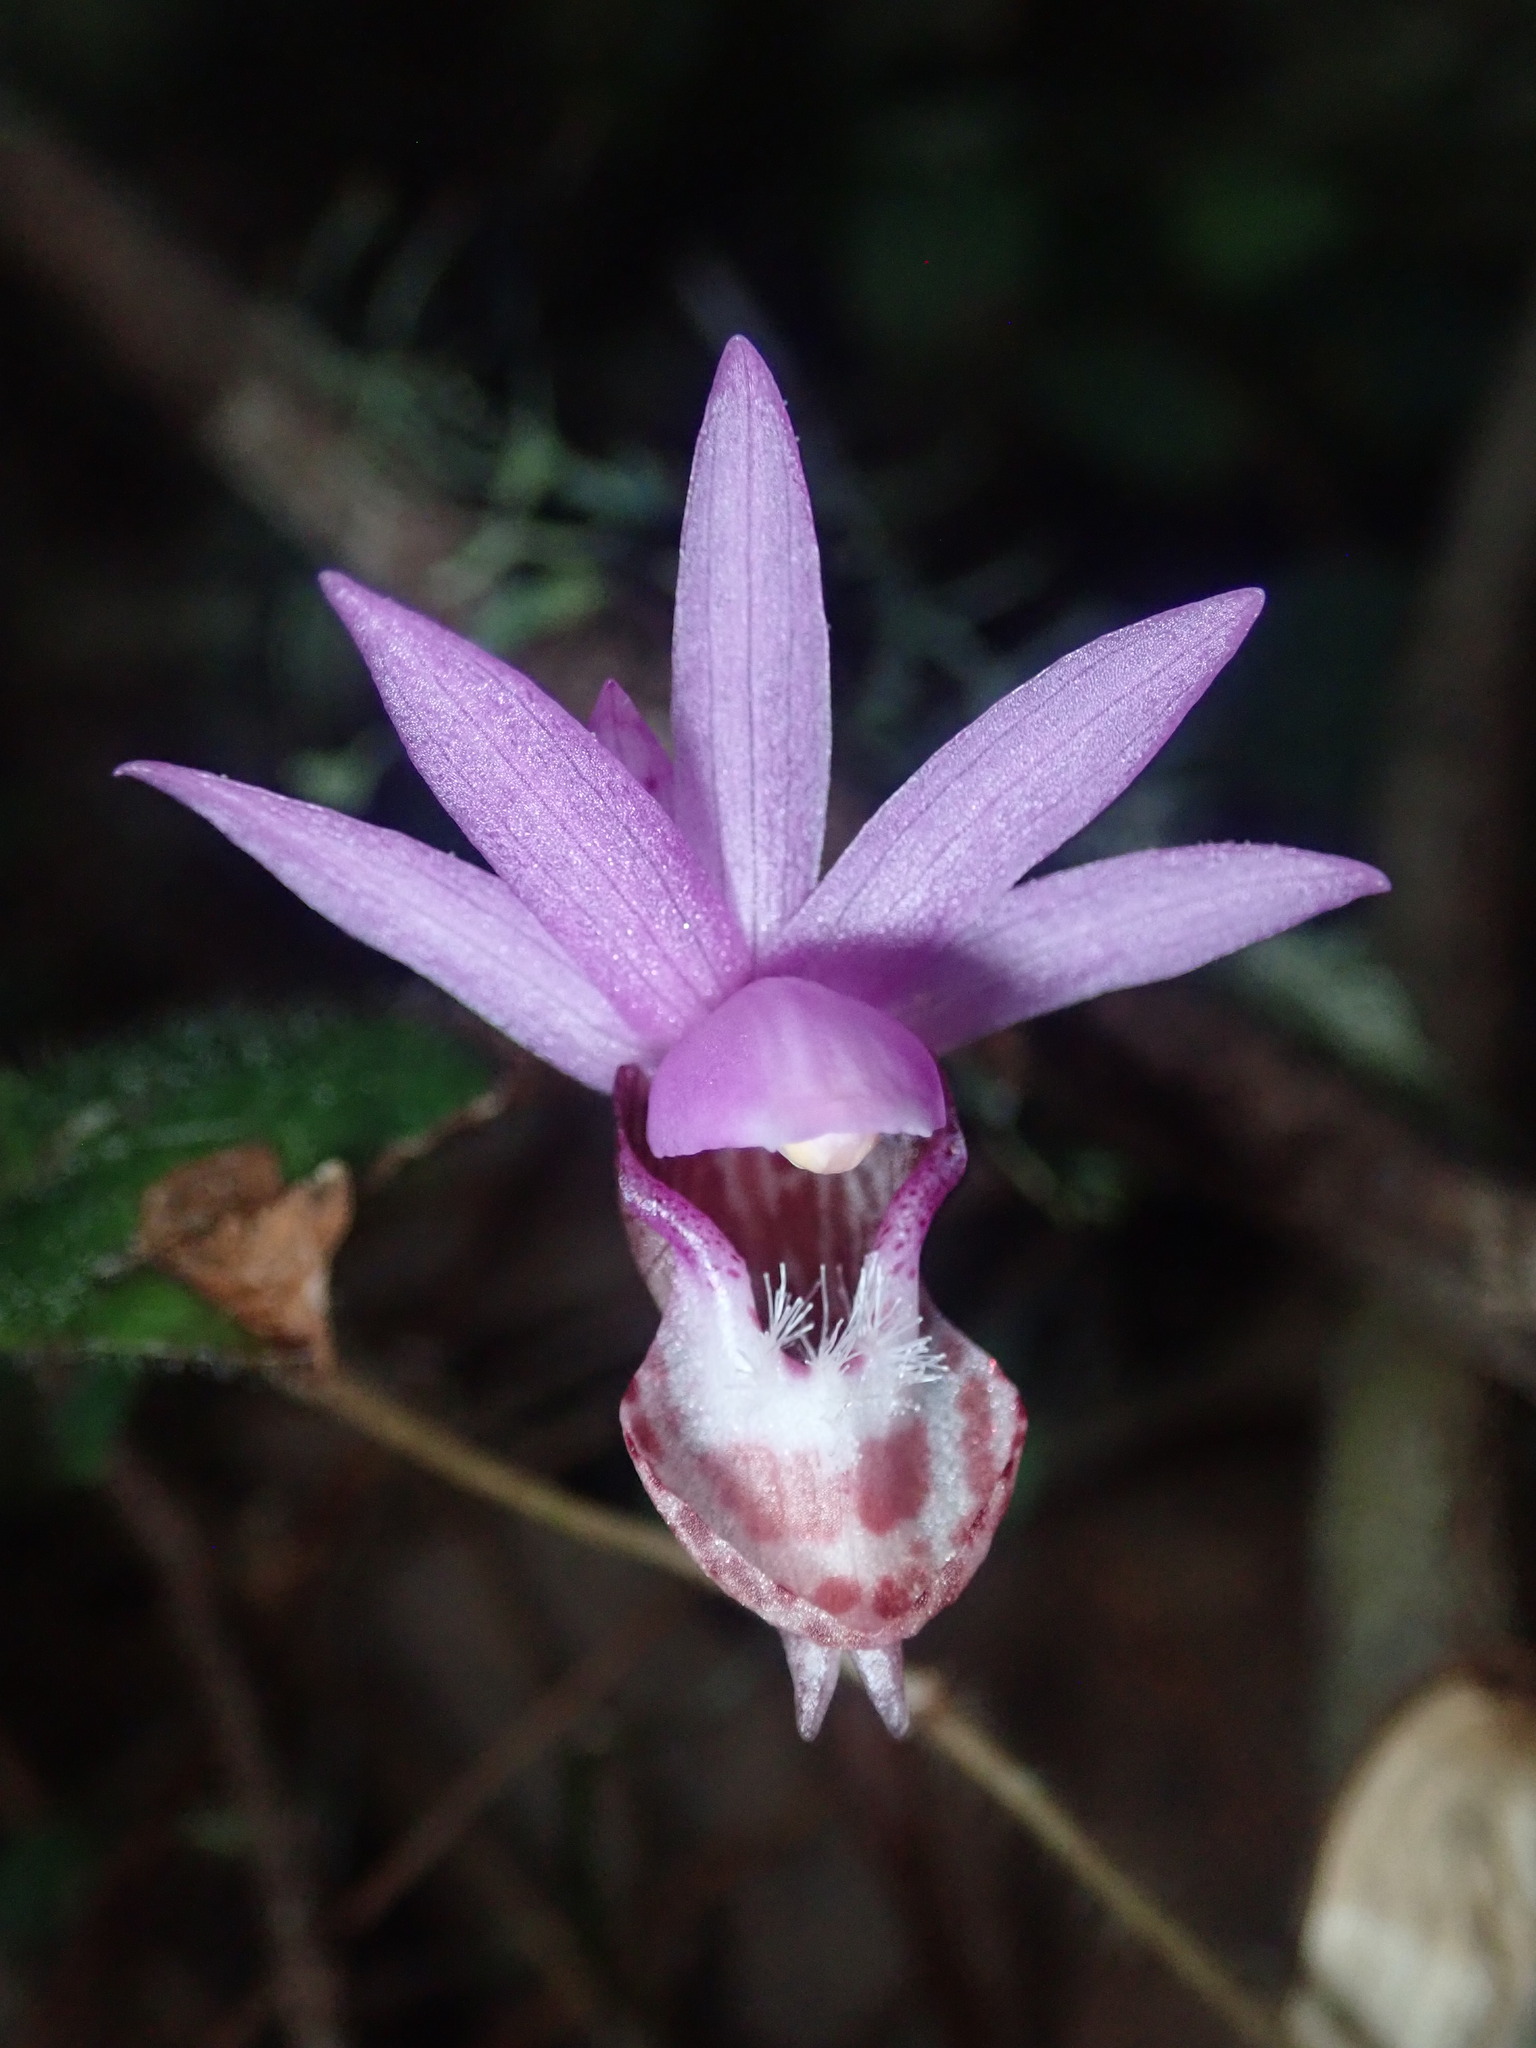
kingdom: Plantae
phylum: Tracheophyta
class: Liliopsida
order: Asparagales
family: Orchidaceae
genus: Calypso
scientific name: Calypso bulbosa
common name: Calypso
